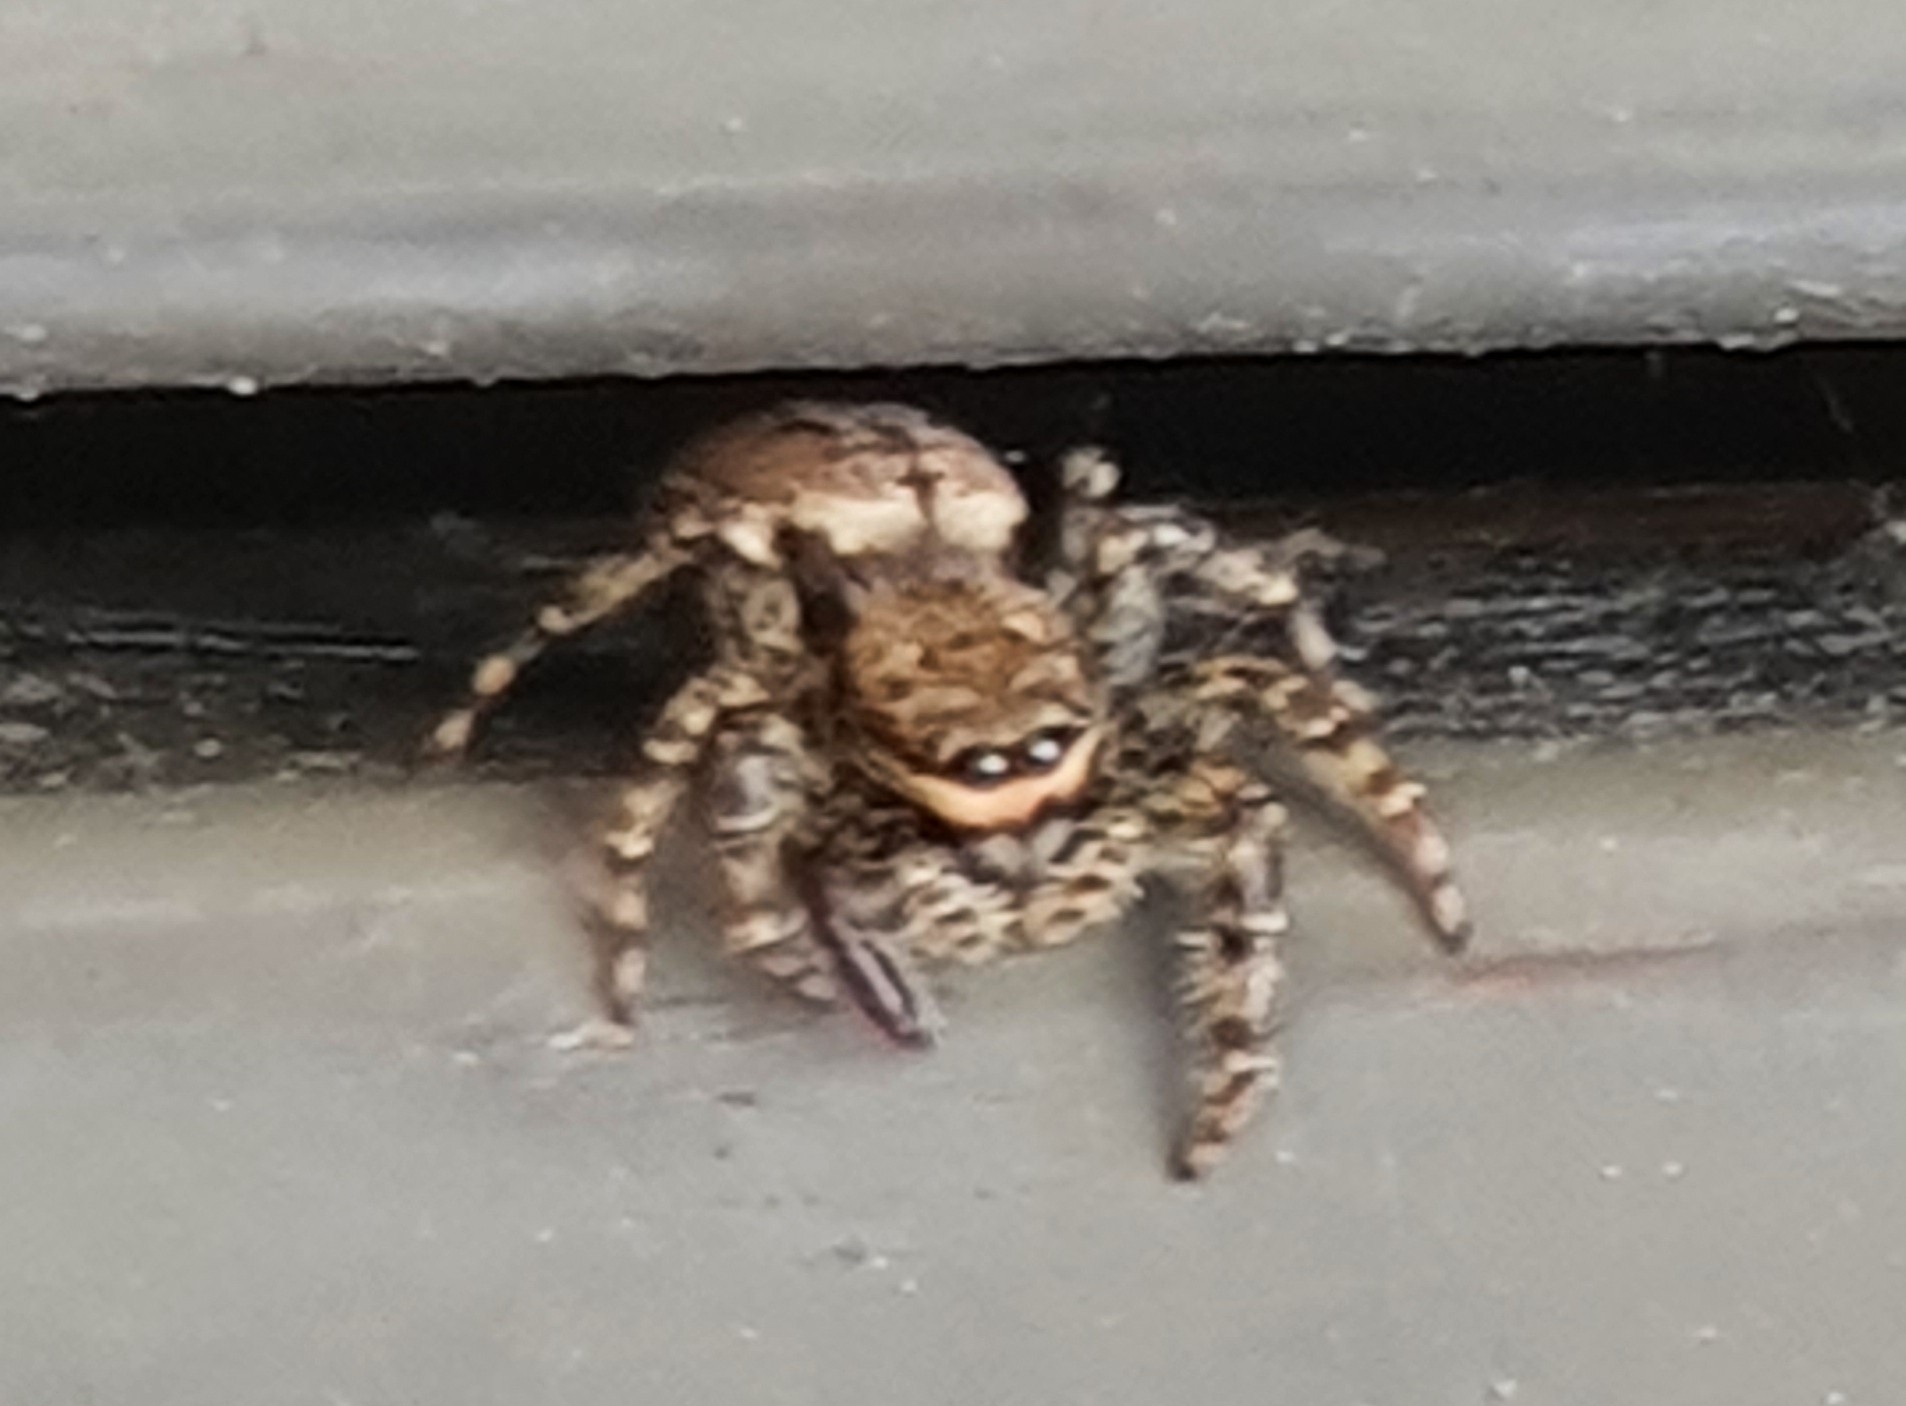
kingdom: Animalia
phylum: Arthropoda
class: Arachnida
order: Araneae
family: Salticidae
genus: Marpissa
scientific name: Marpissa muscosa
